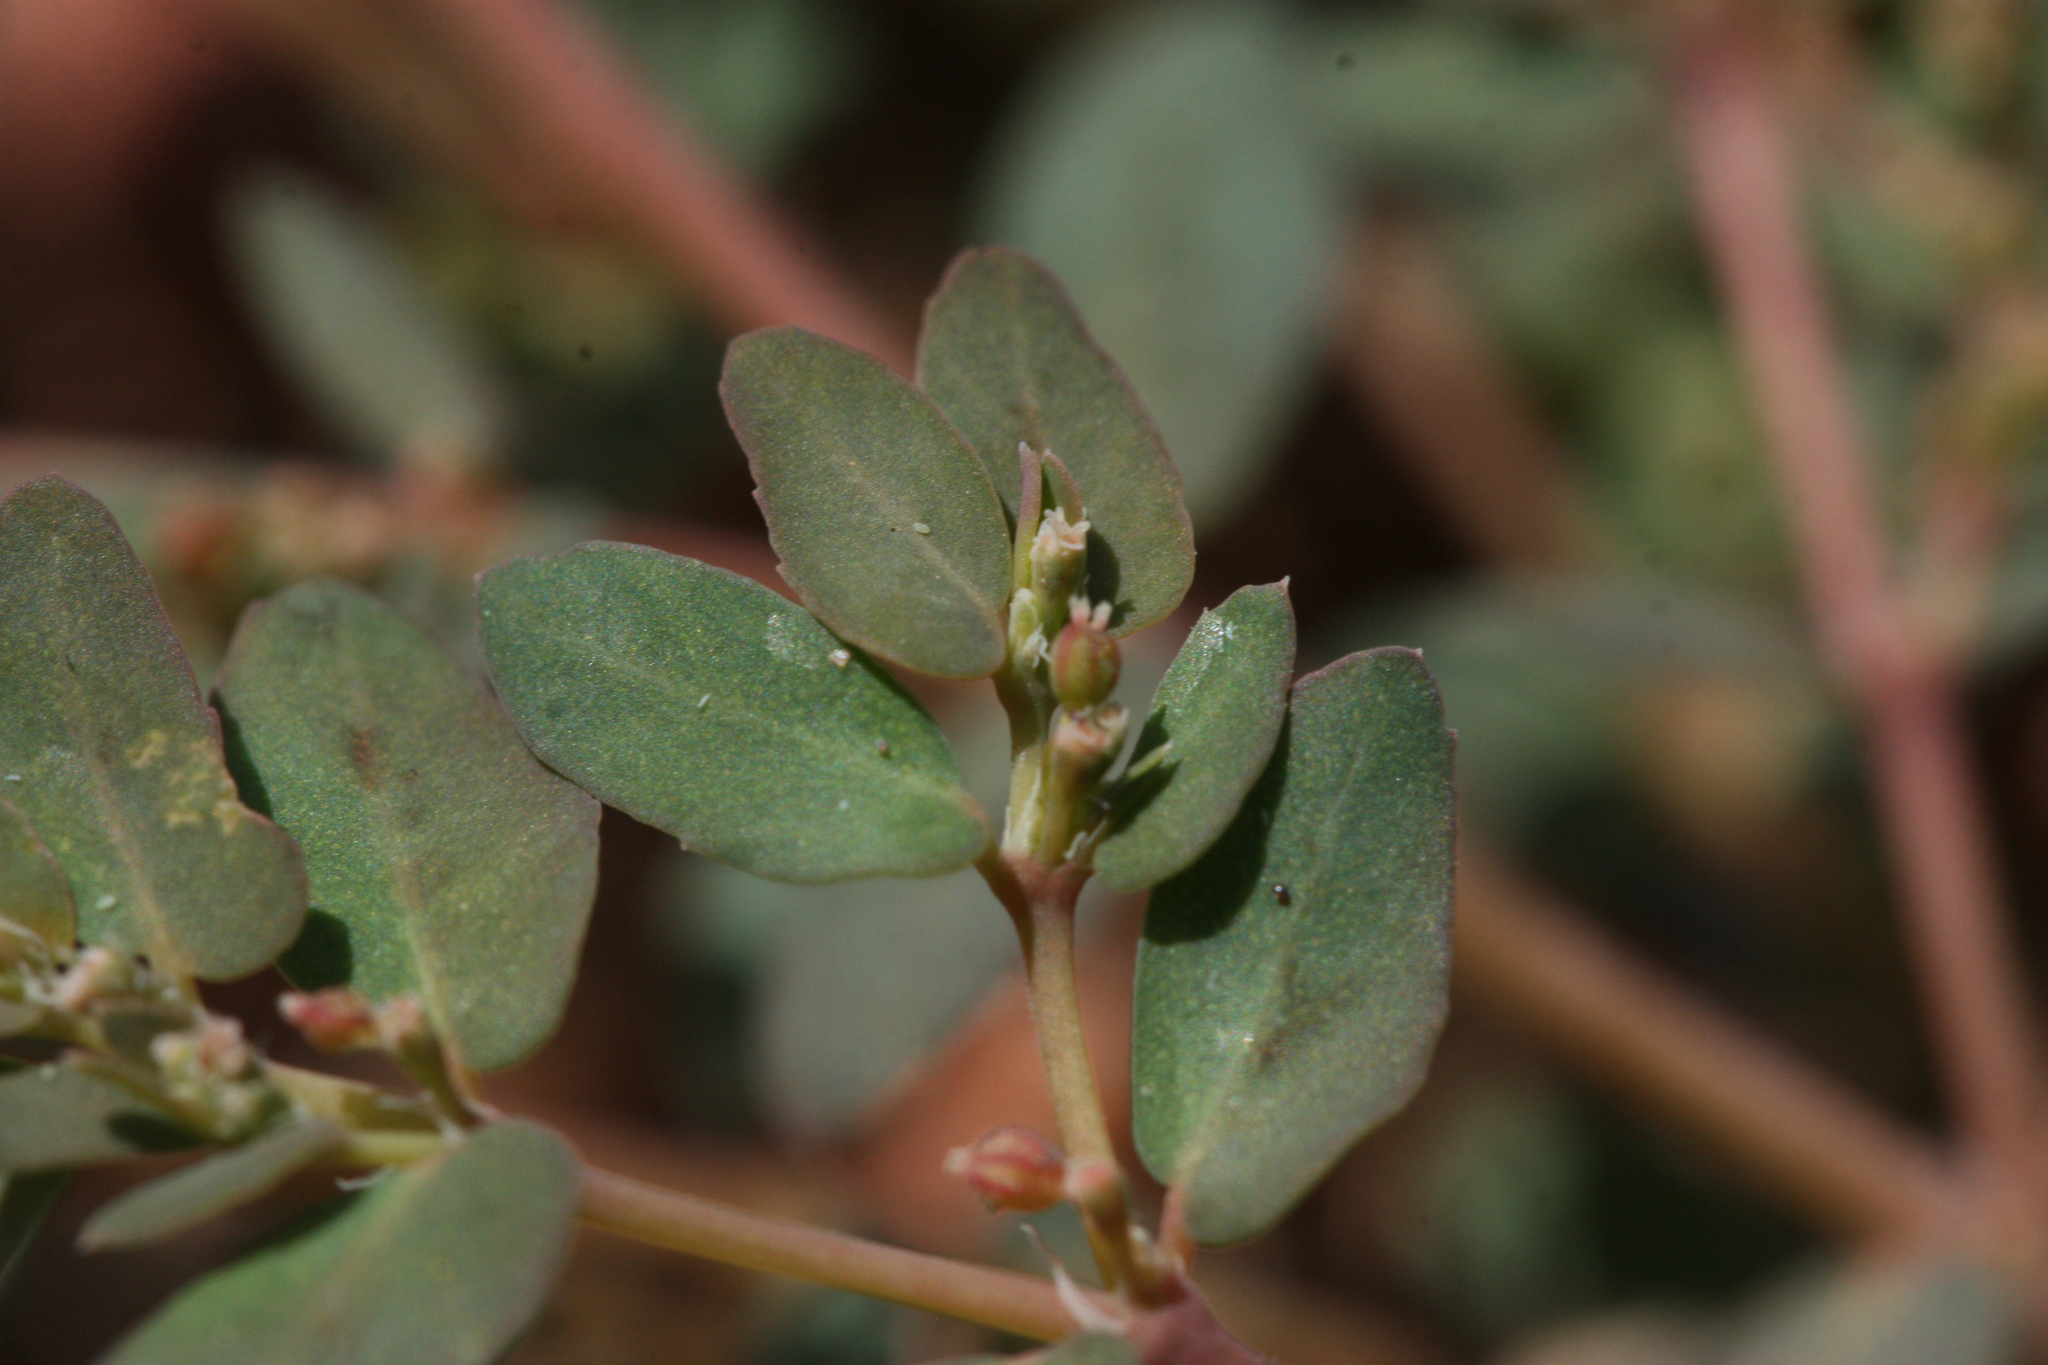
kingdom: Plantae
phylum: Tracheophyta
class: Magnoliopsida
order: Malpighiales
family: Euphorbiaceae
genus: Euphorbia
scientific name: Euphorbia abramsiana
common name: Abram's spurge
